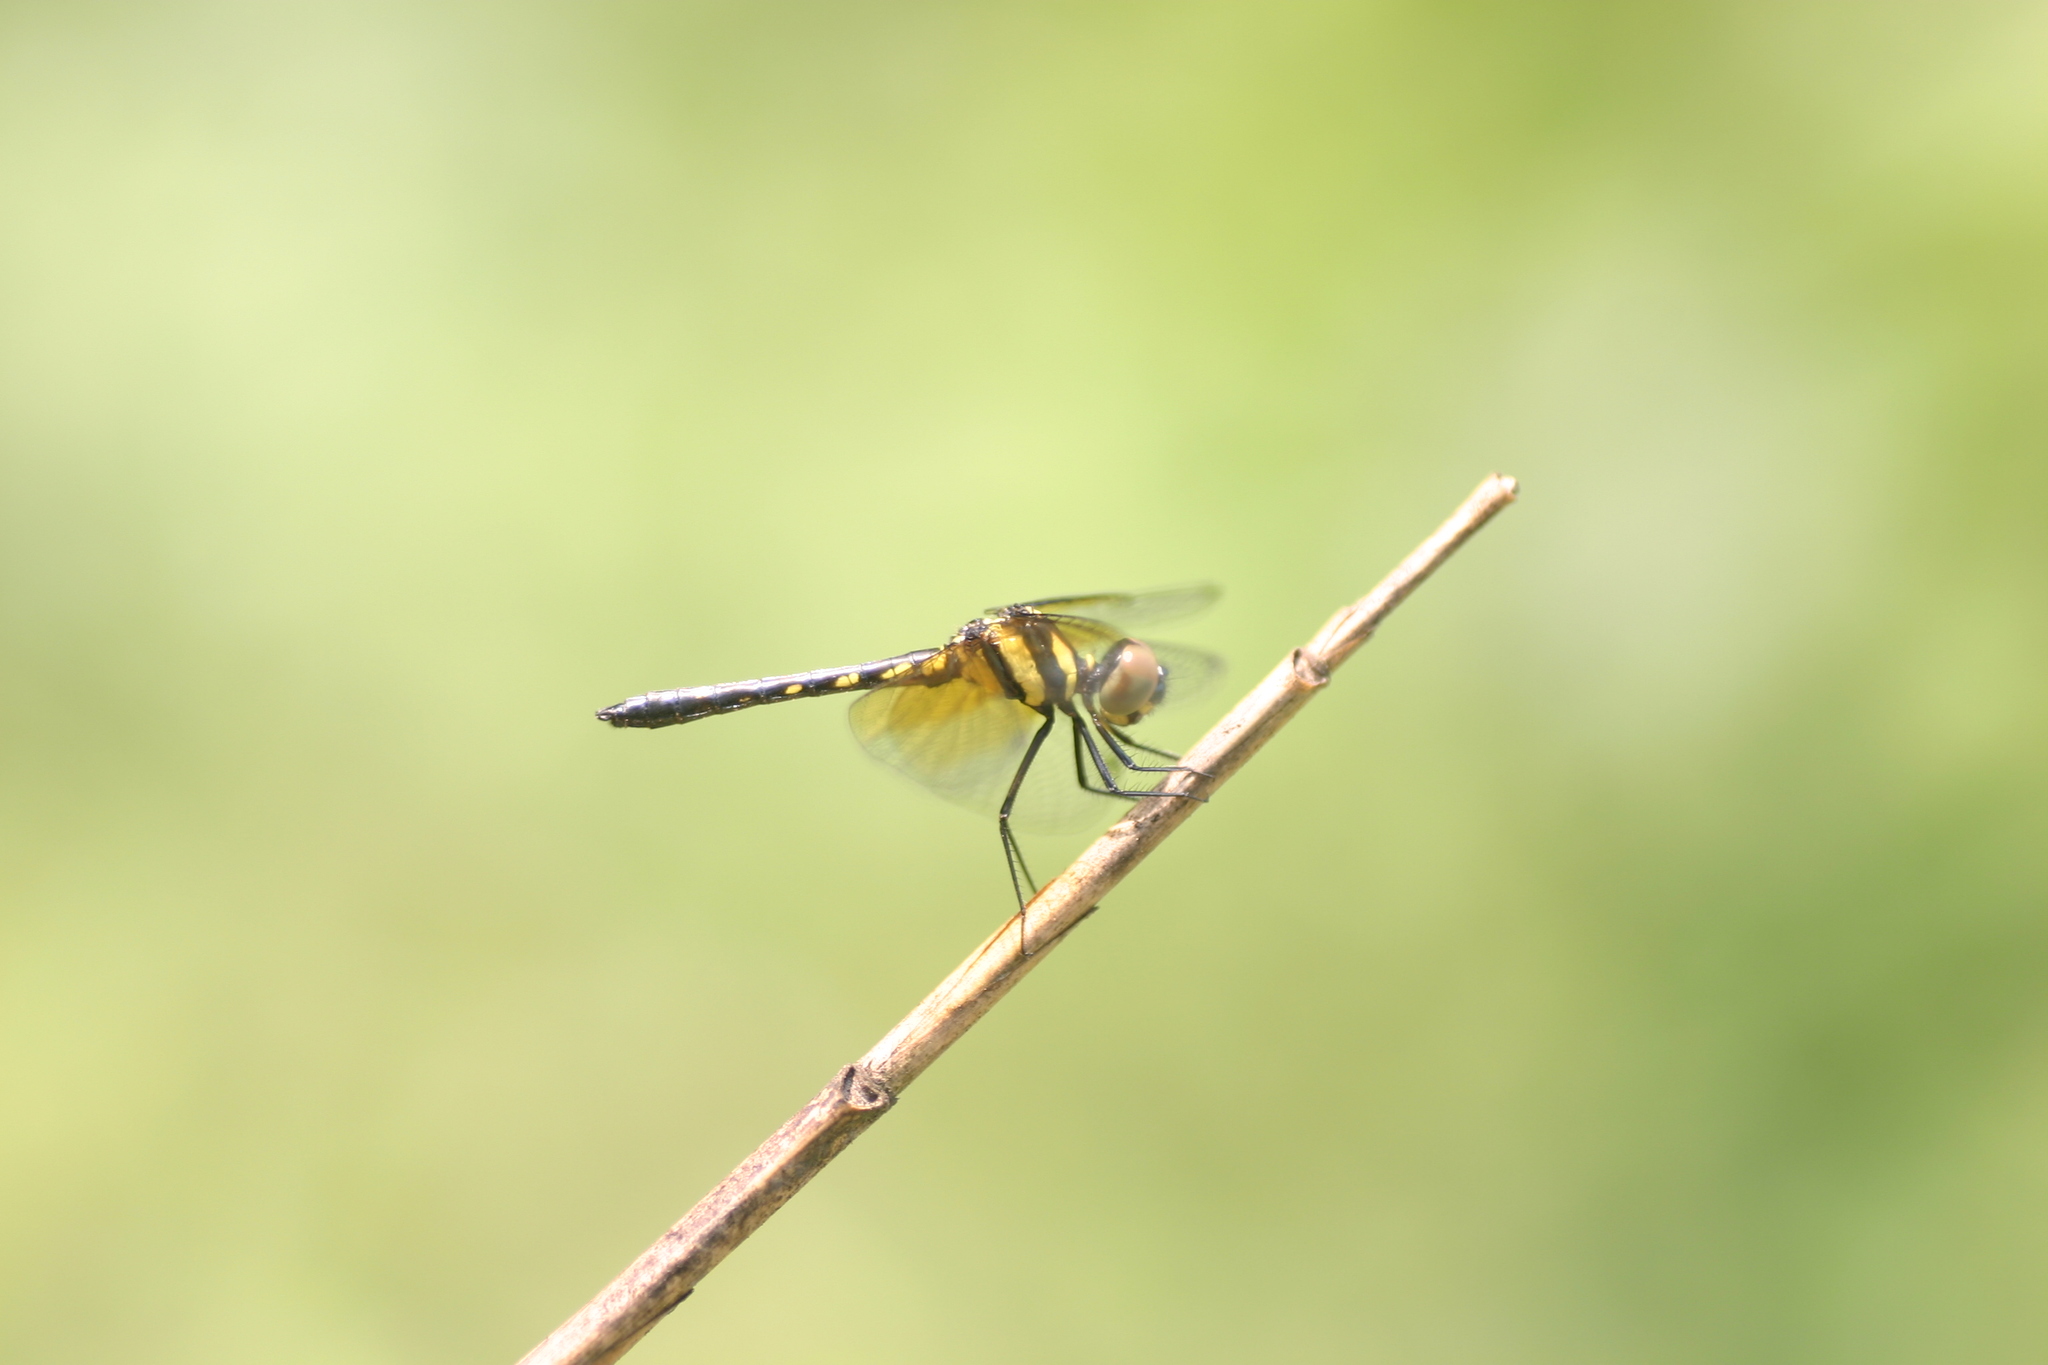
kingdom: Animalia
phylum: Arthropoda
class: Insecta
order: Odonata
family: Libellulidae
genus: Tetrathemis
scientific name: Tetrathemis platyptera
